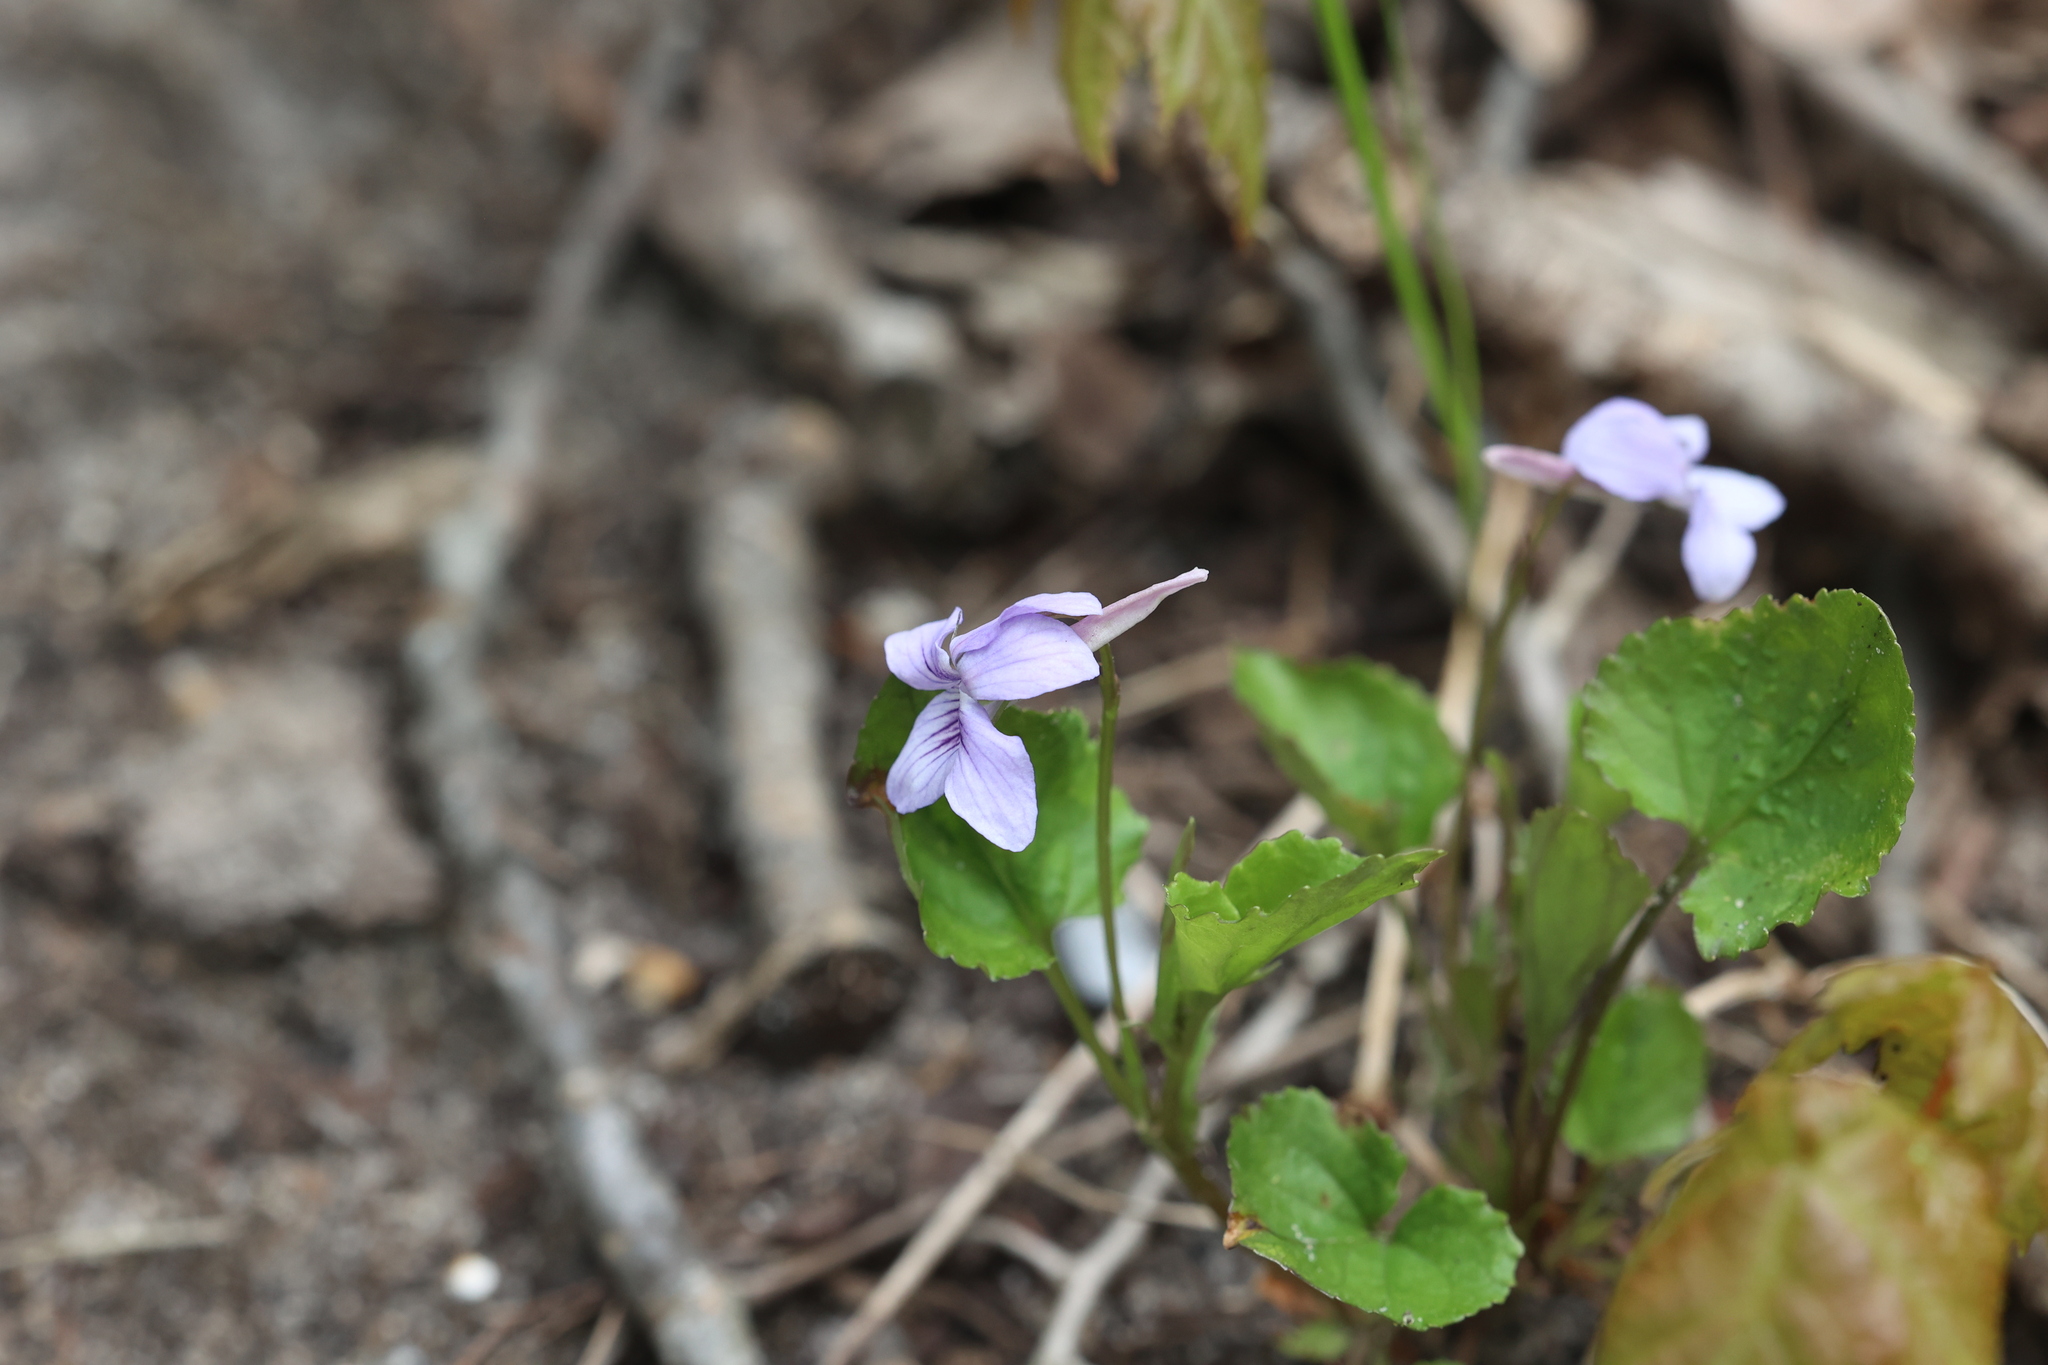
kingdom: Plantae
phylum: Tracheophyta
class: Magnoliopsida
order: Malpighiales
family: Violaceae
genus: Viola
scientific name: Viola rostrata
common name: Long-spur violet
